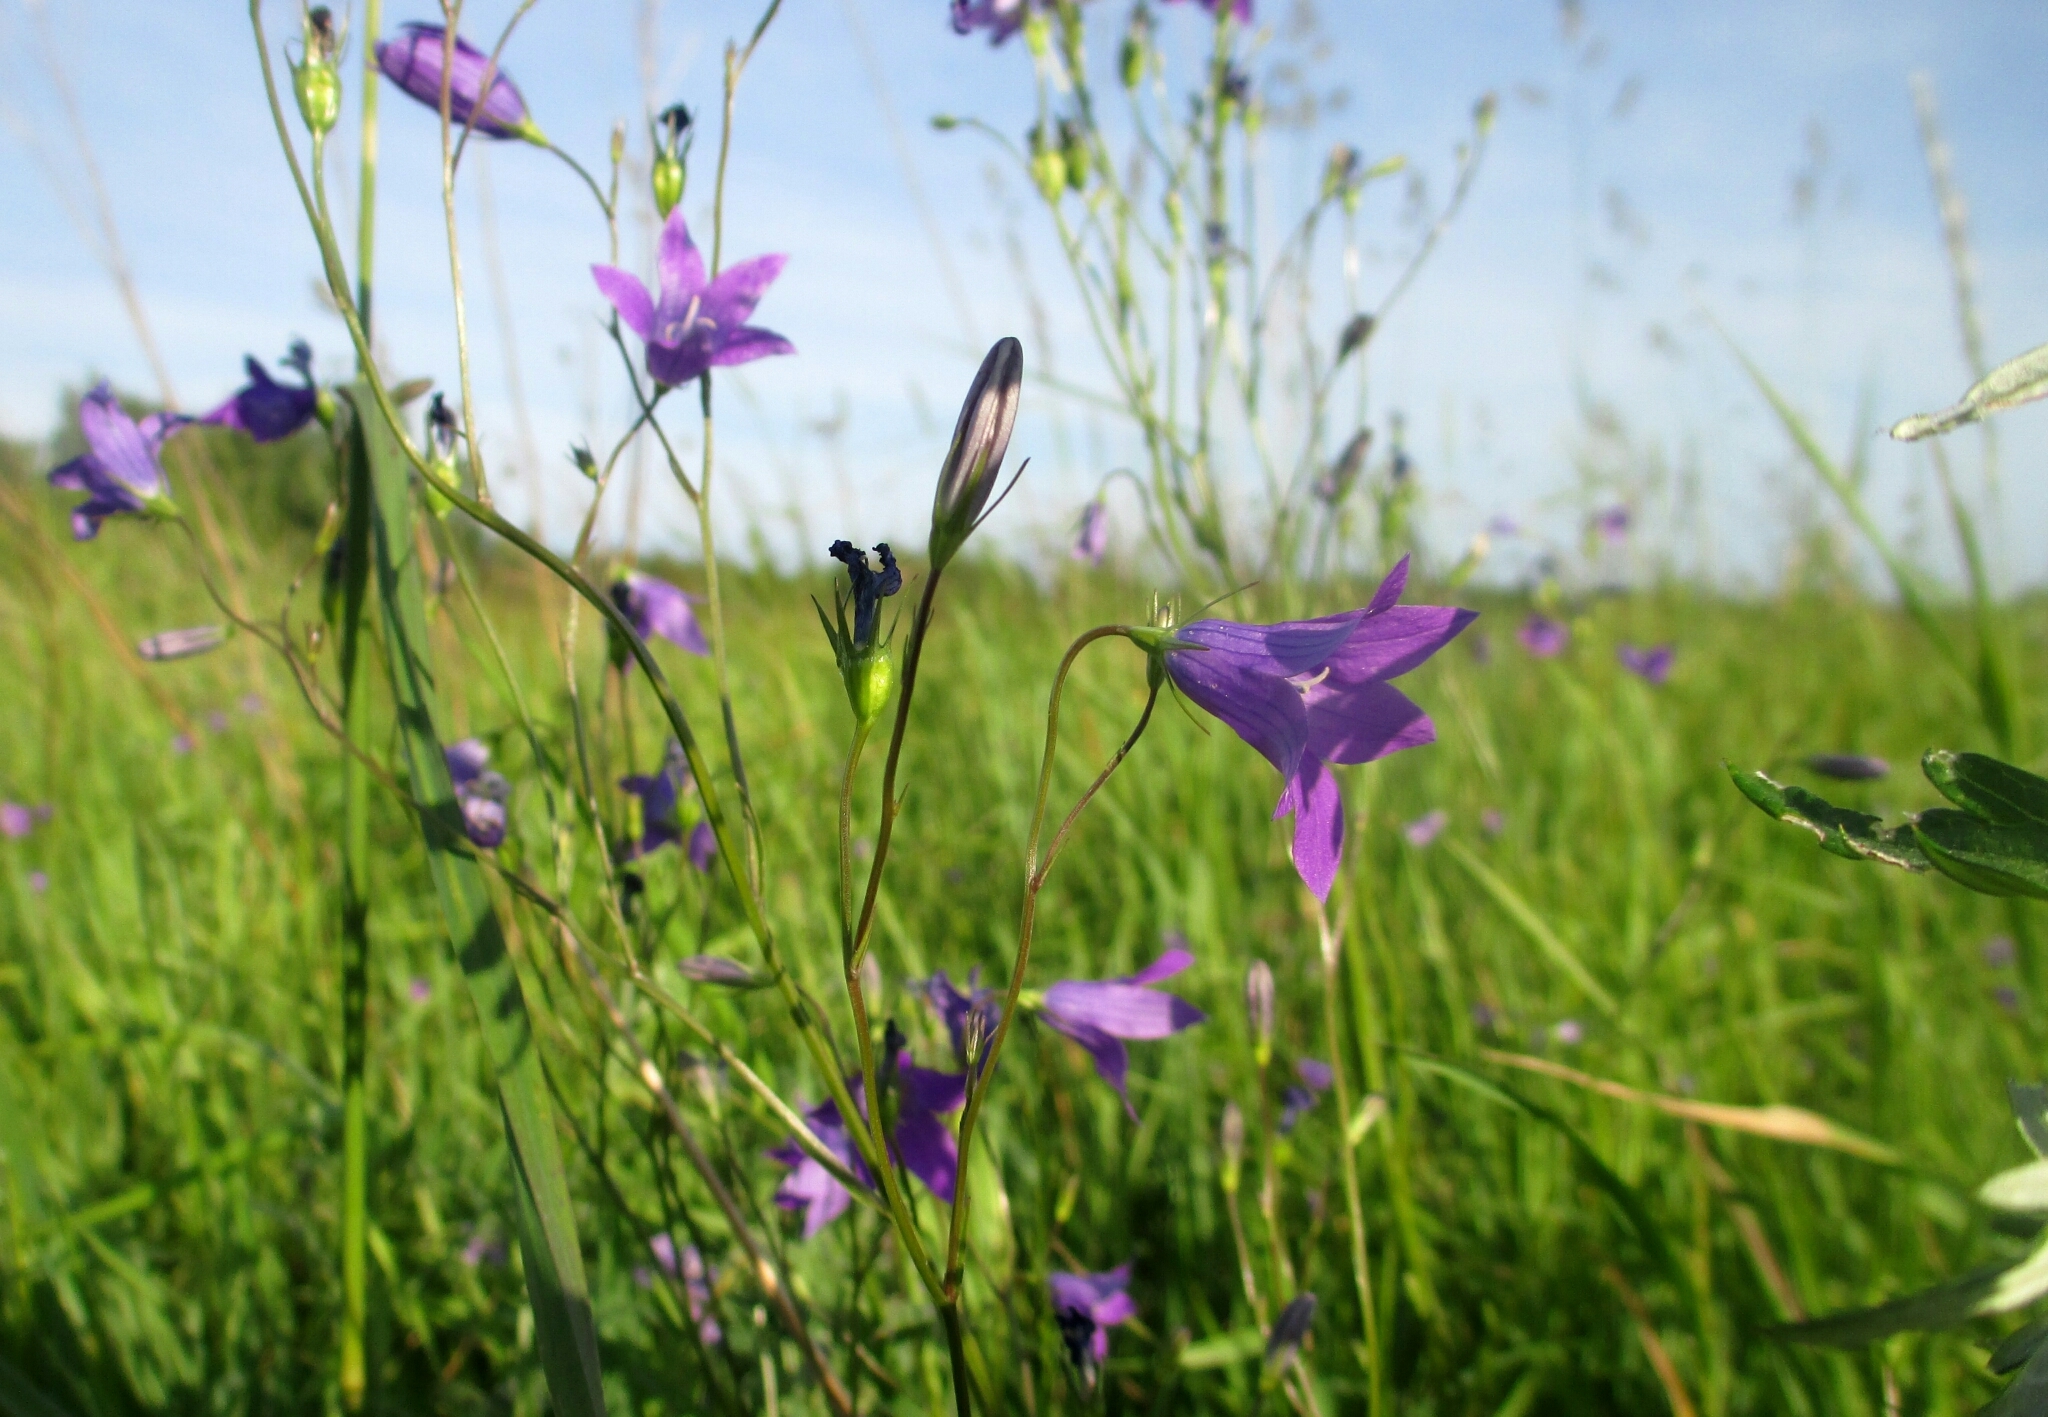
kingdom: Plantae
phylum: Tracheophyta
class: Magnoliopsida
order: Asterales
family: Campanulaceae
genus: Campanula
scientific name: Campanula patula
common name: Spreading bellflower
